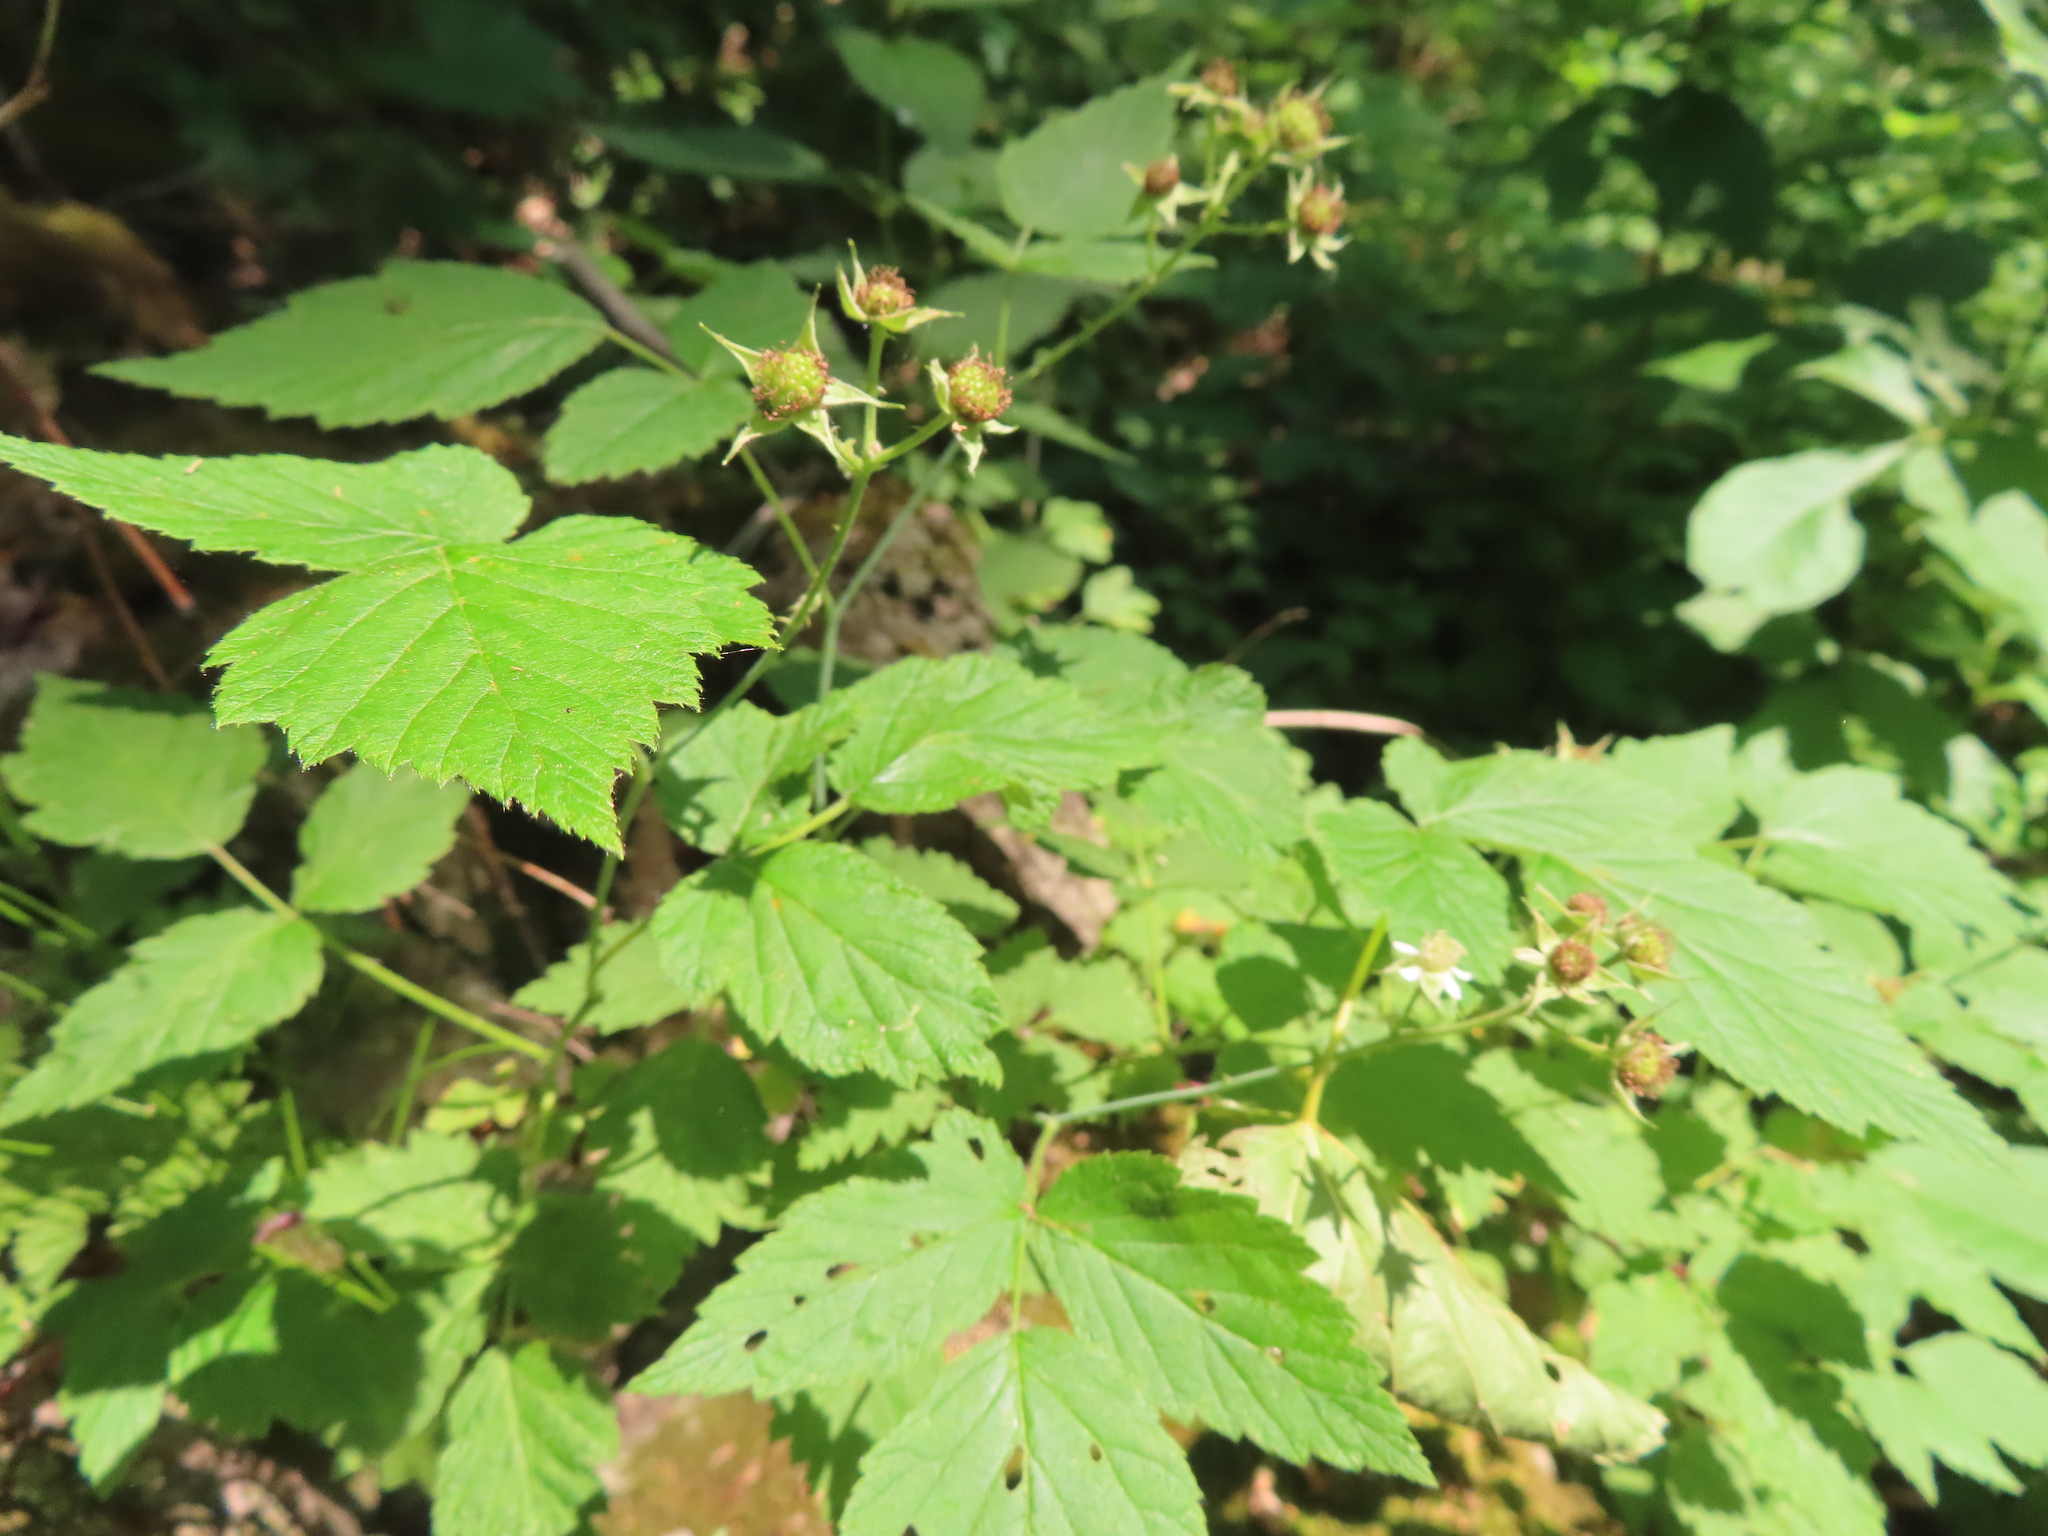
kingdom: Plantae
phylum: Tracheophyta
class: Magnoliopsida
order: Rosales
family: Rosaceae
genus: Rubus
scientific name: Rubus occidentalis
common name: Black raspberry
